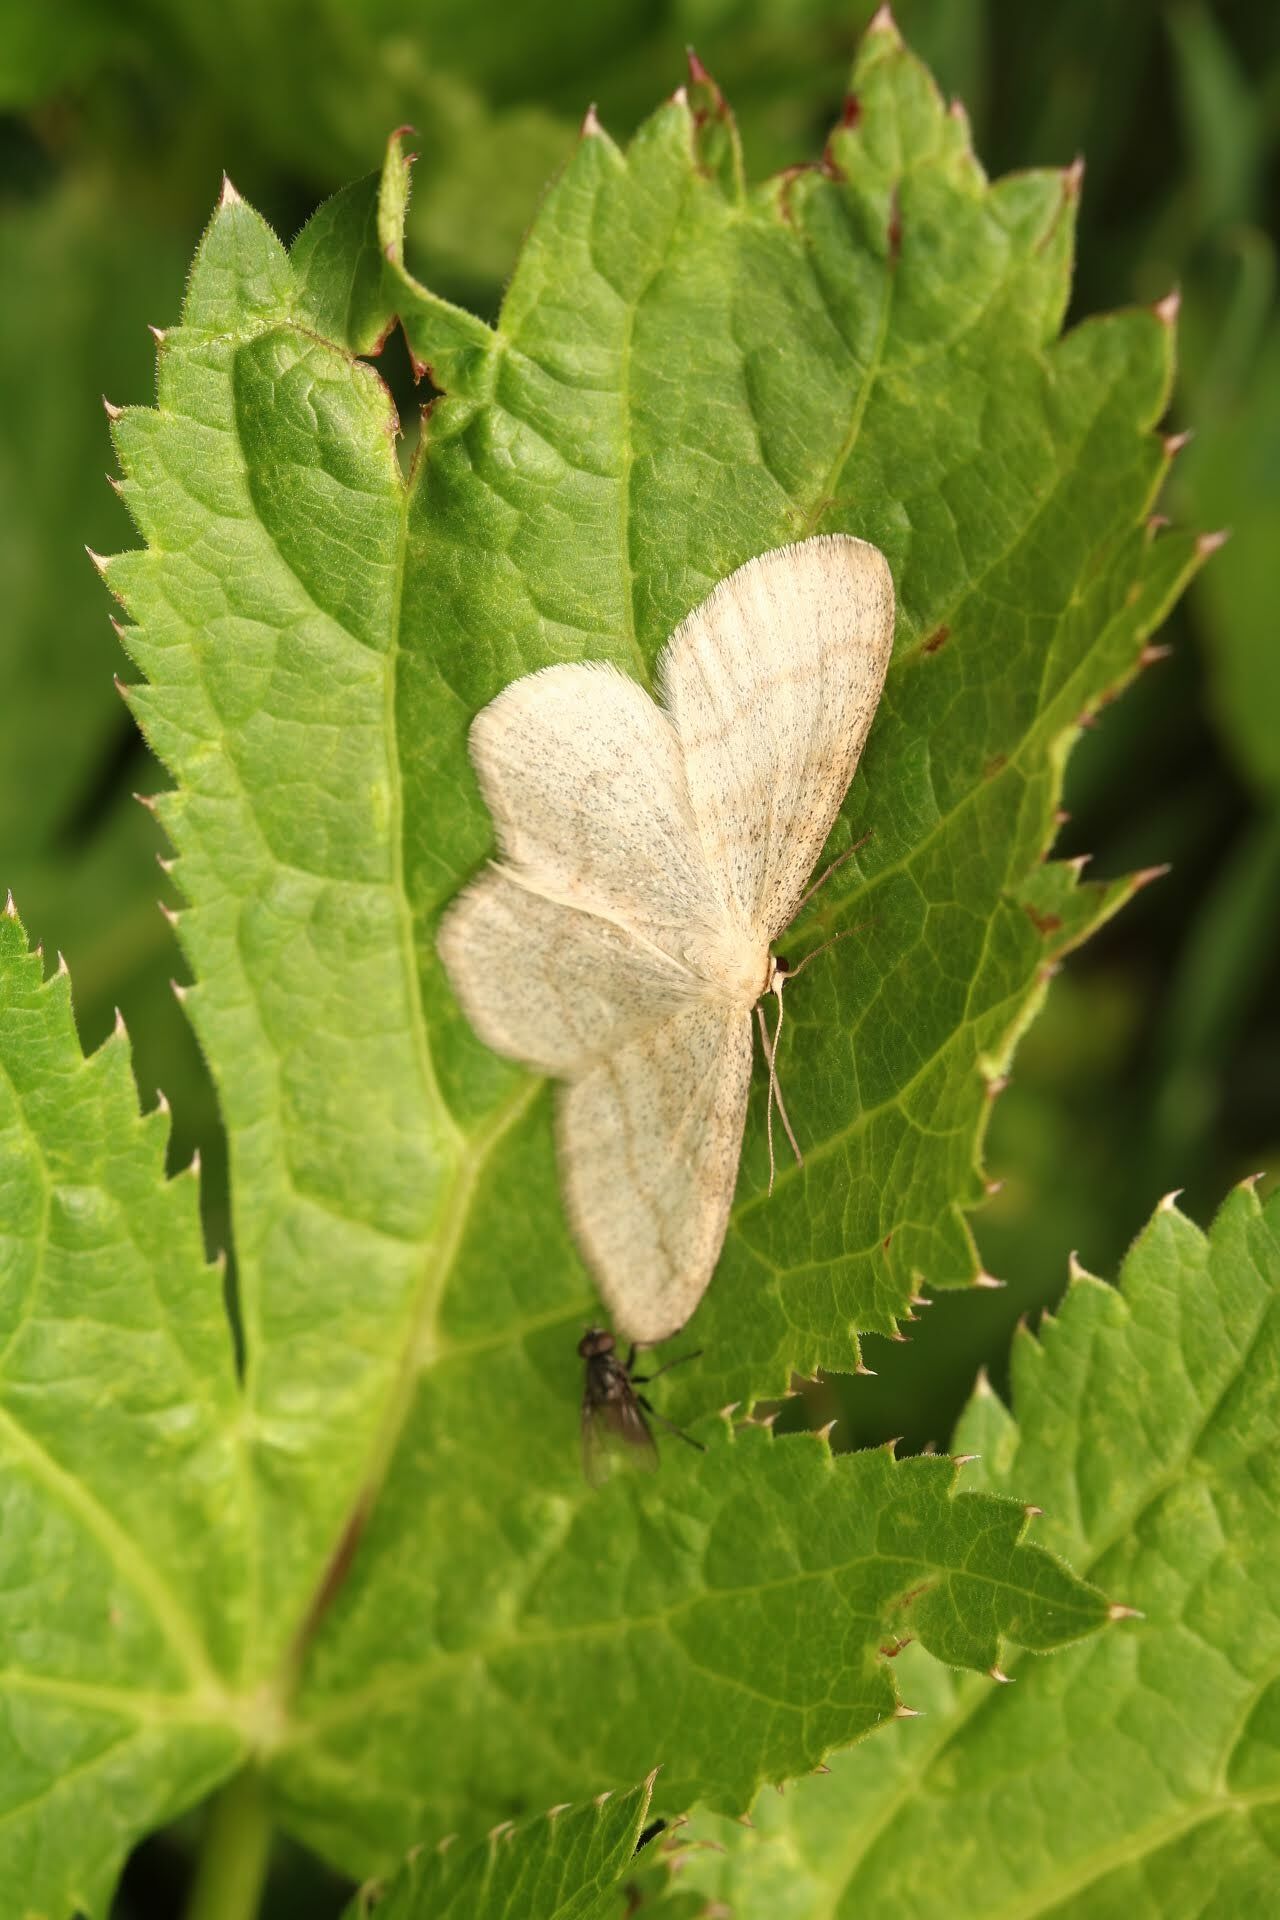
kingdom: Animalia
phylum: Arthropoda
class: Insecta
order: Lepidoptera
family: Geometridae
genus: Scopula
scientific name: Scopula ternata
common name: Smoky wave
